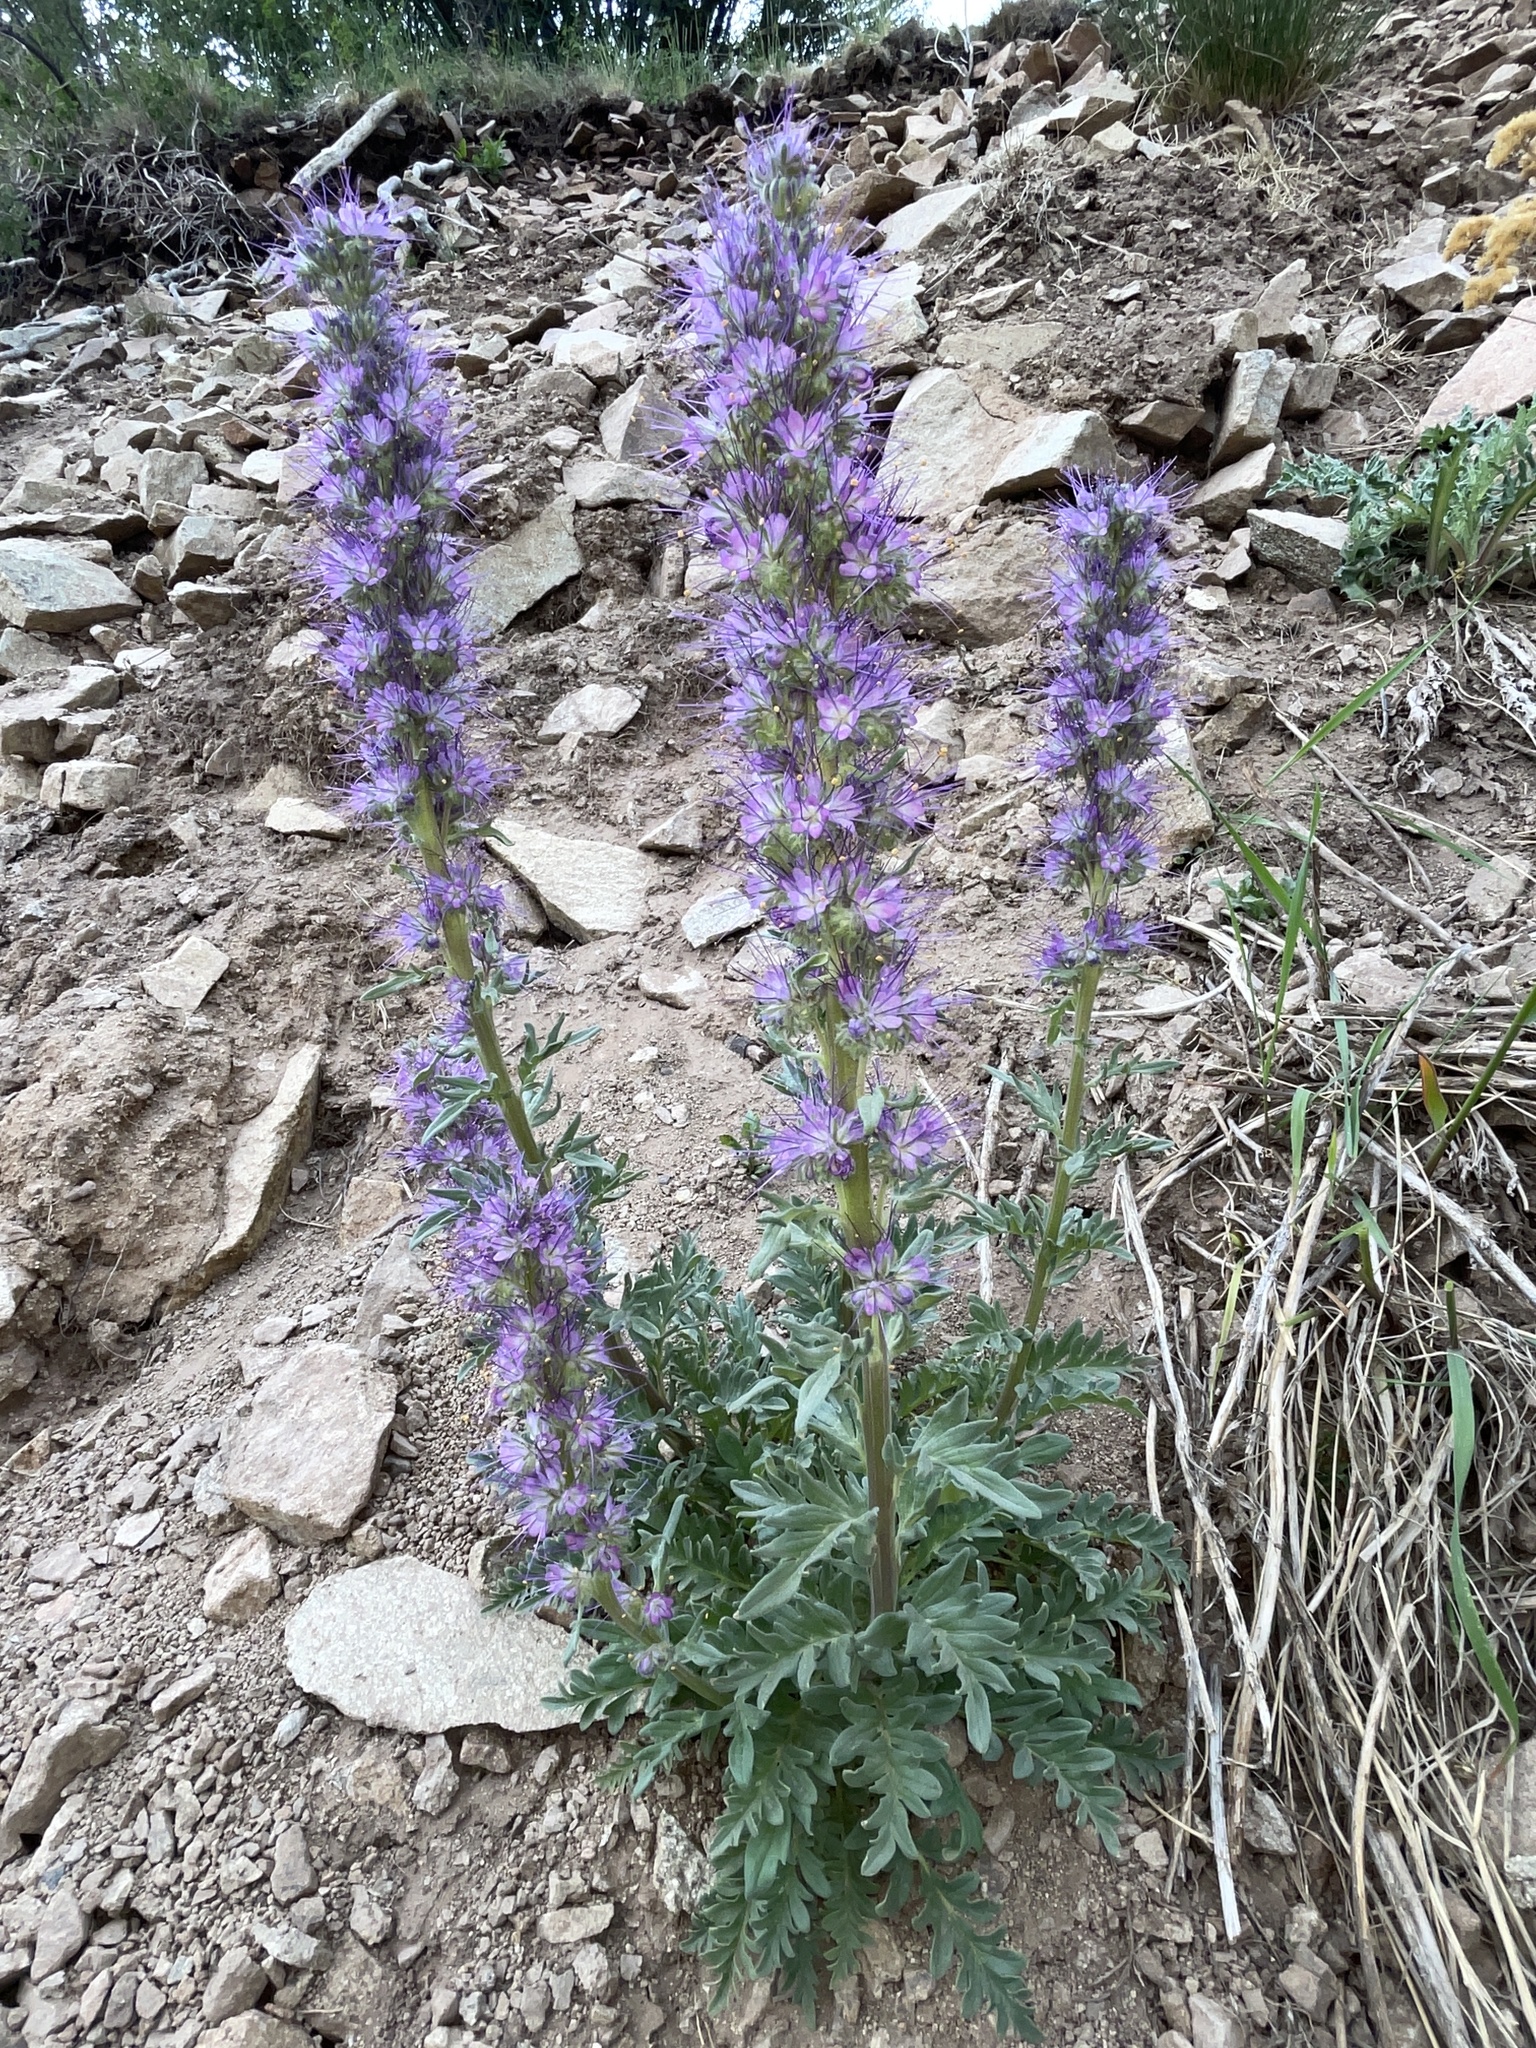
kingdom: Plantae
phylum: Tracheophyta
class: Magnoliopsida
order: Boraginales
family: Hydrophyllaceae
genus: Phacelia
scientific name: Phacelia sericea
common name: Silky phacelia
